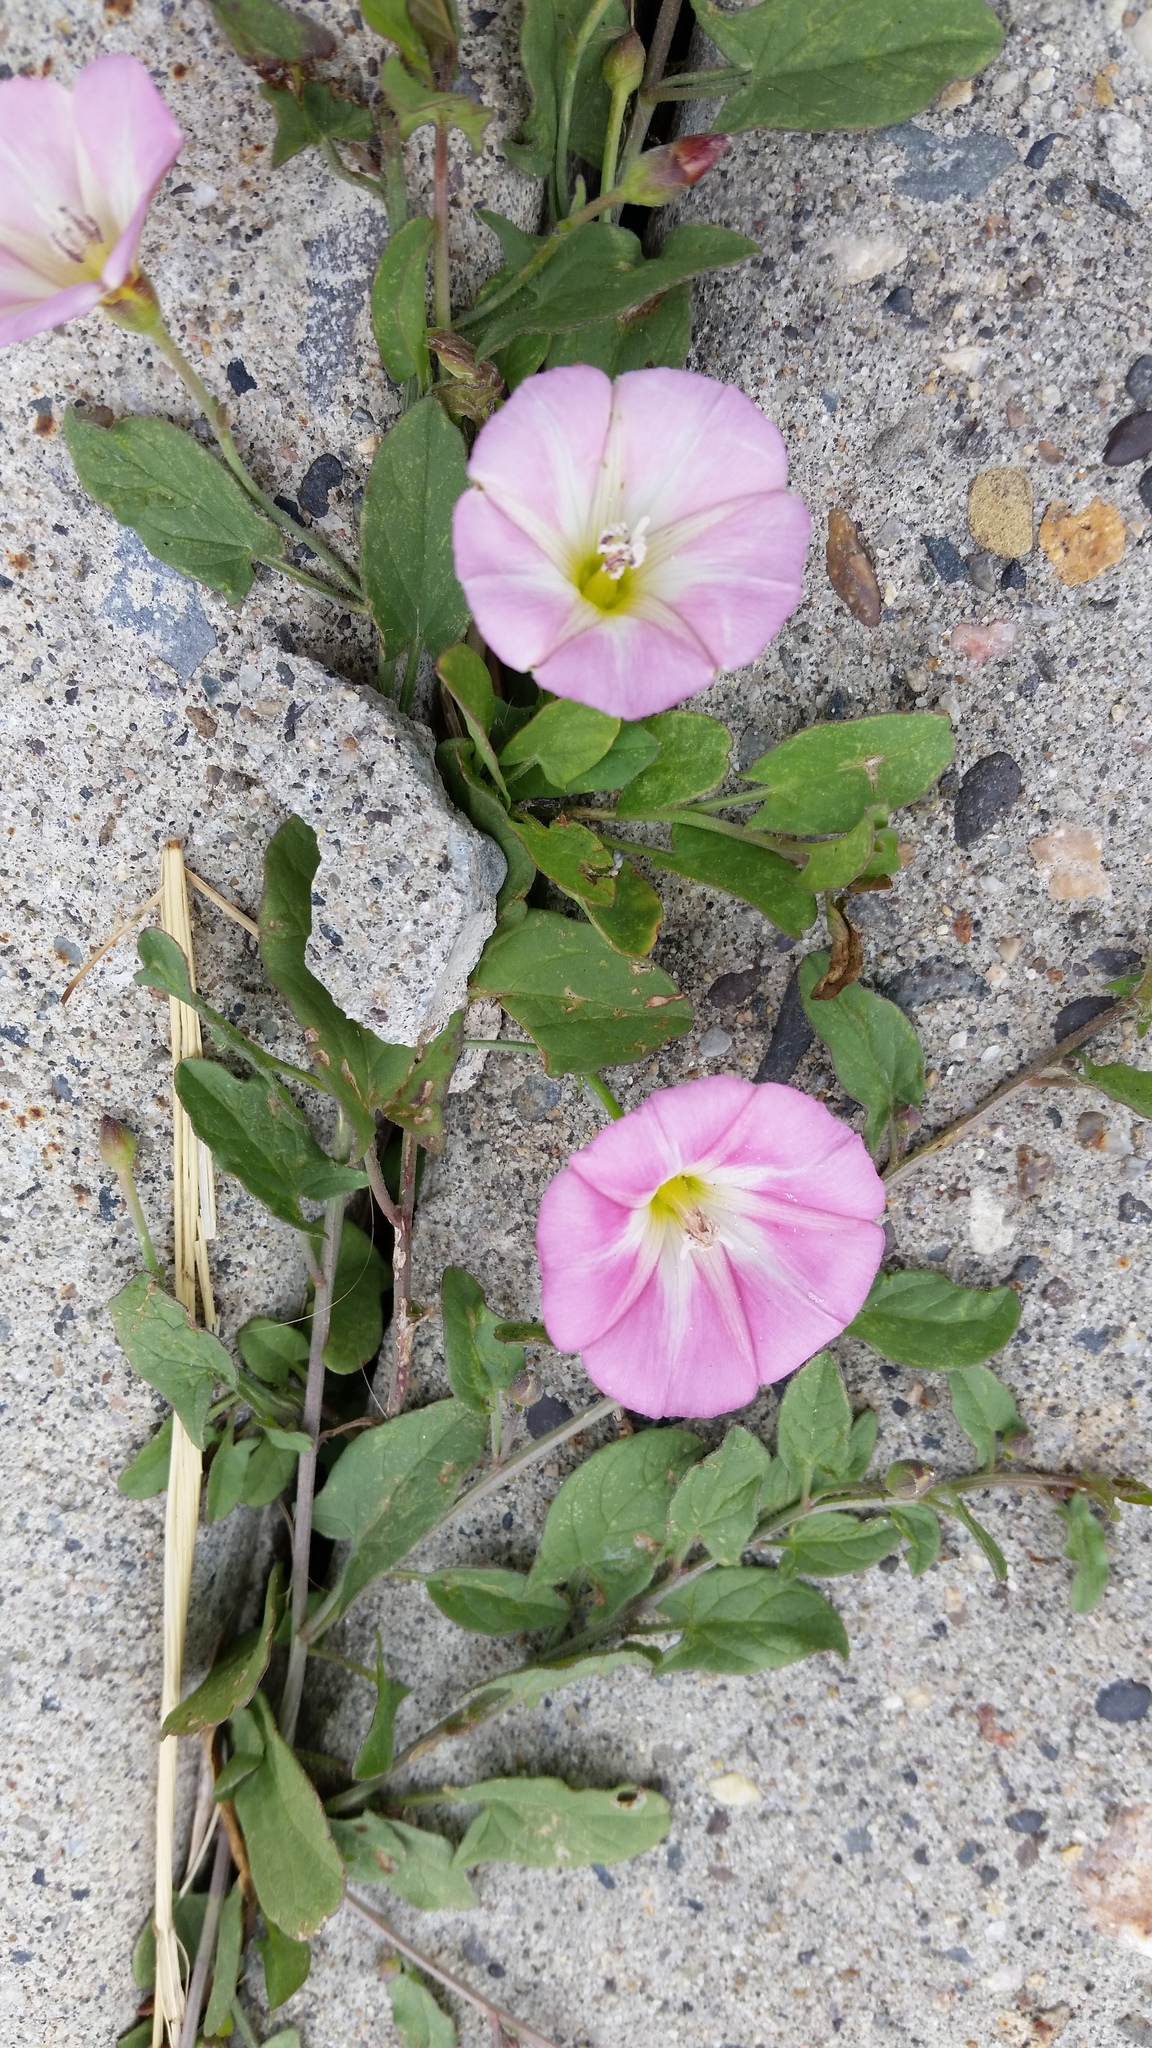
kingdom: Plantae
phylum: Tracheophyta
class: Magnoliopsida
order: Solanales
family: Convolvulaceae
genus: Convolvulus
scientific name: Convolvulus arvensis
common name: Field bindweed
